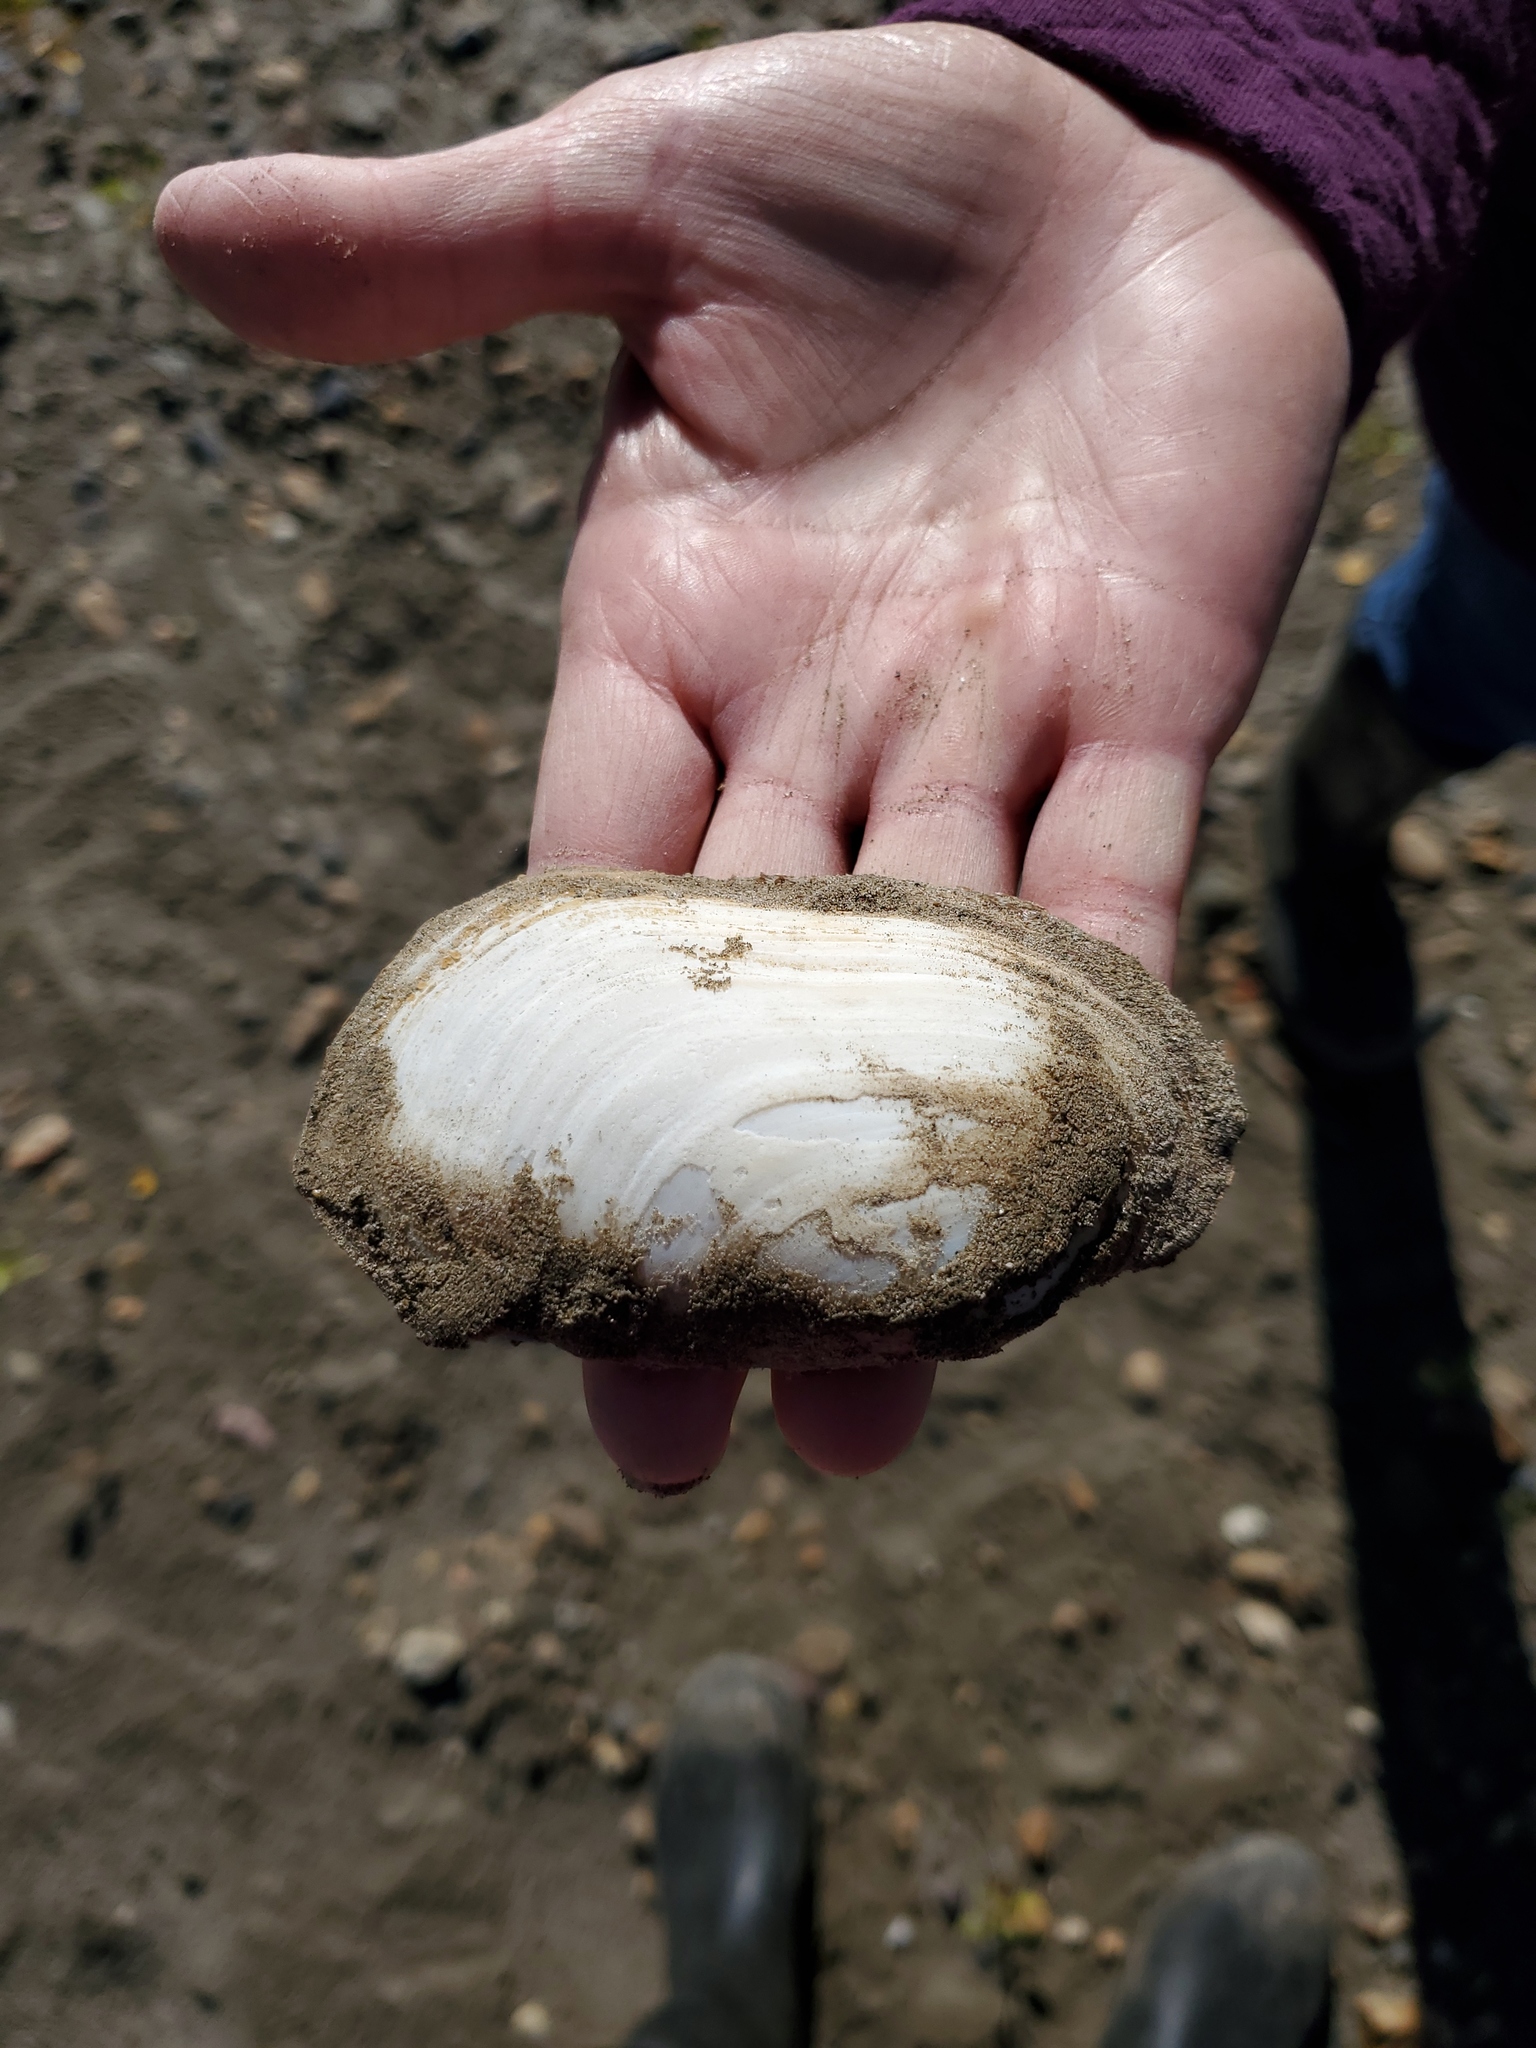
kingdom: Animalia
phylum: Mollusca
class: Bivalvia
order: Unionida
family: Unionidae
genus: Lampsilis
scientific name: Lampsilis siliquoidea
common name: Fatmucket
